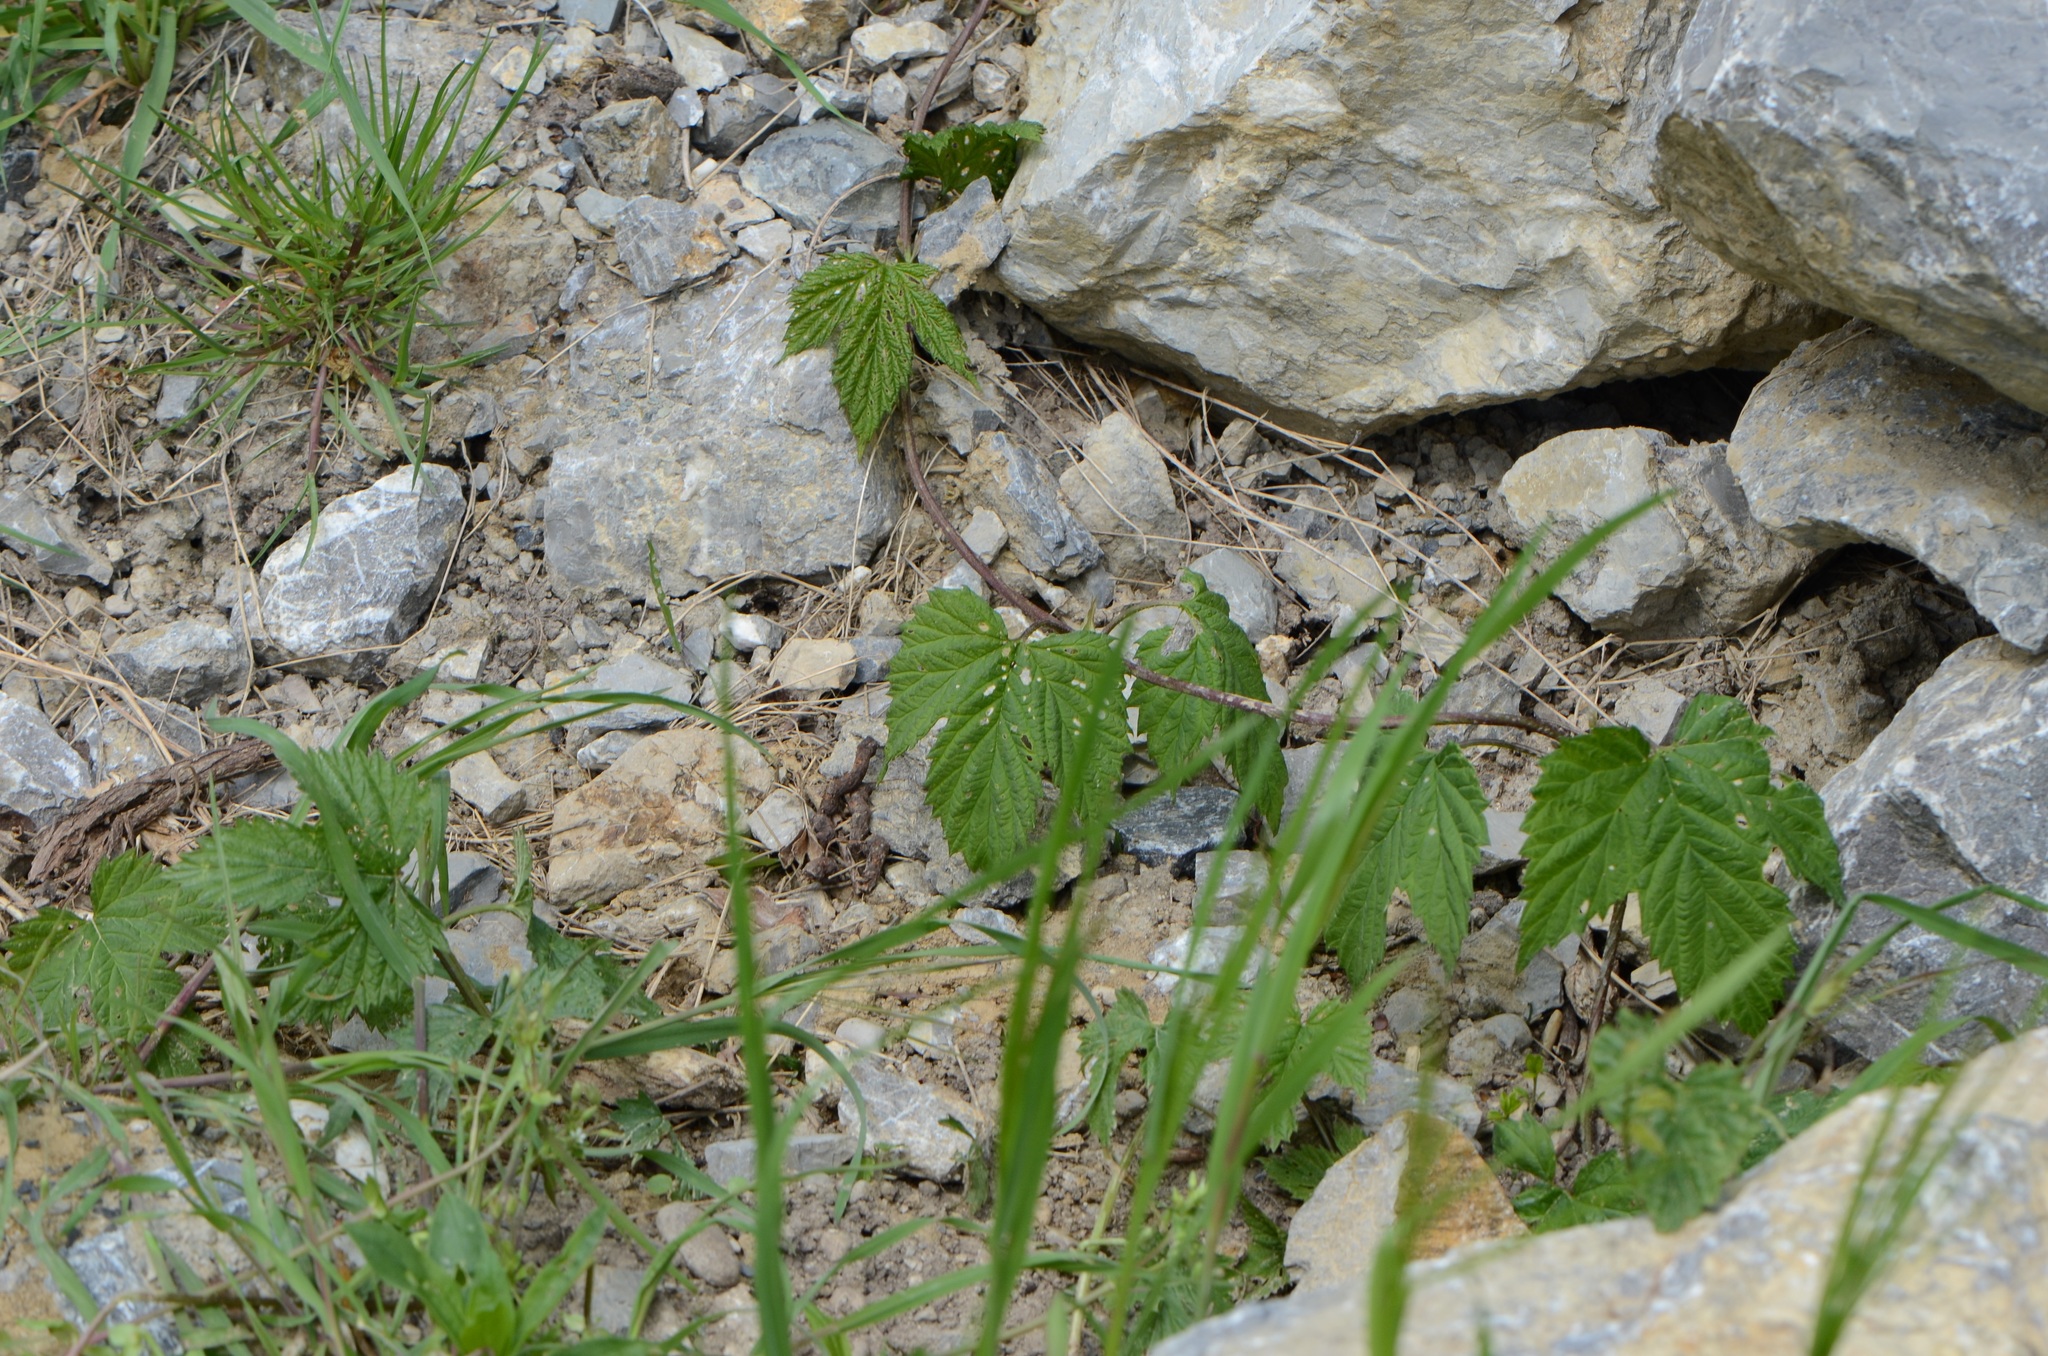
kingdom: Plantae
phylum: Tracheophyta
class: Magnoliopsida
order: Rosales
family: Cannabaceae
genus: Humulus
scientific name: Humulus lupulus
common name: Hop
